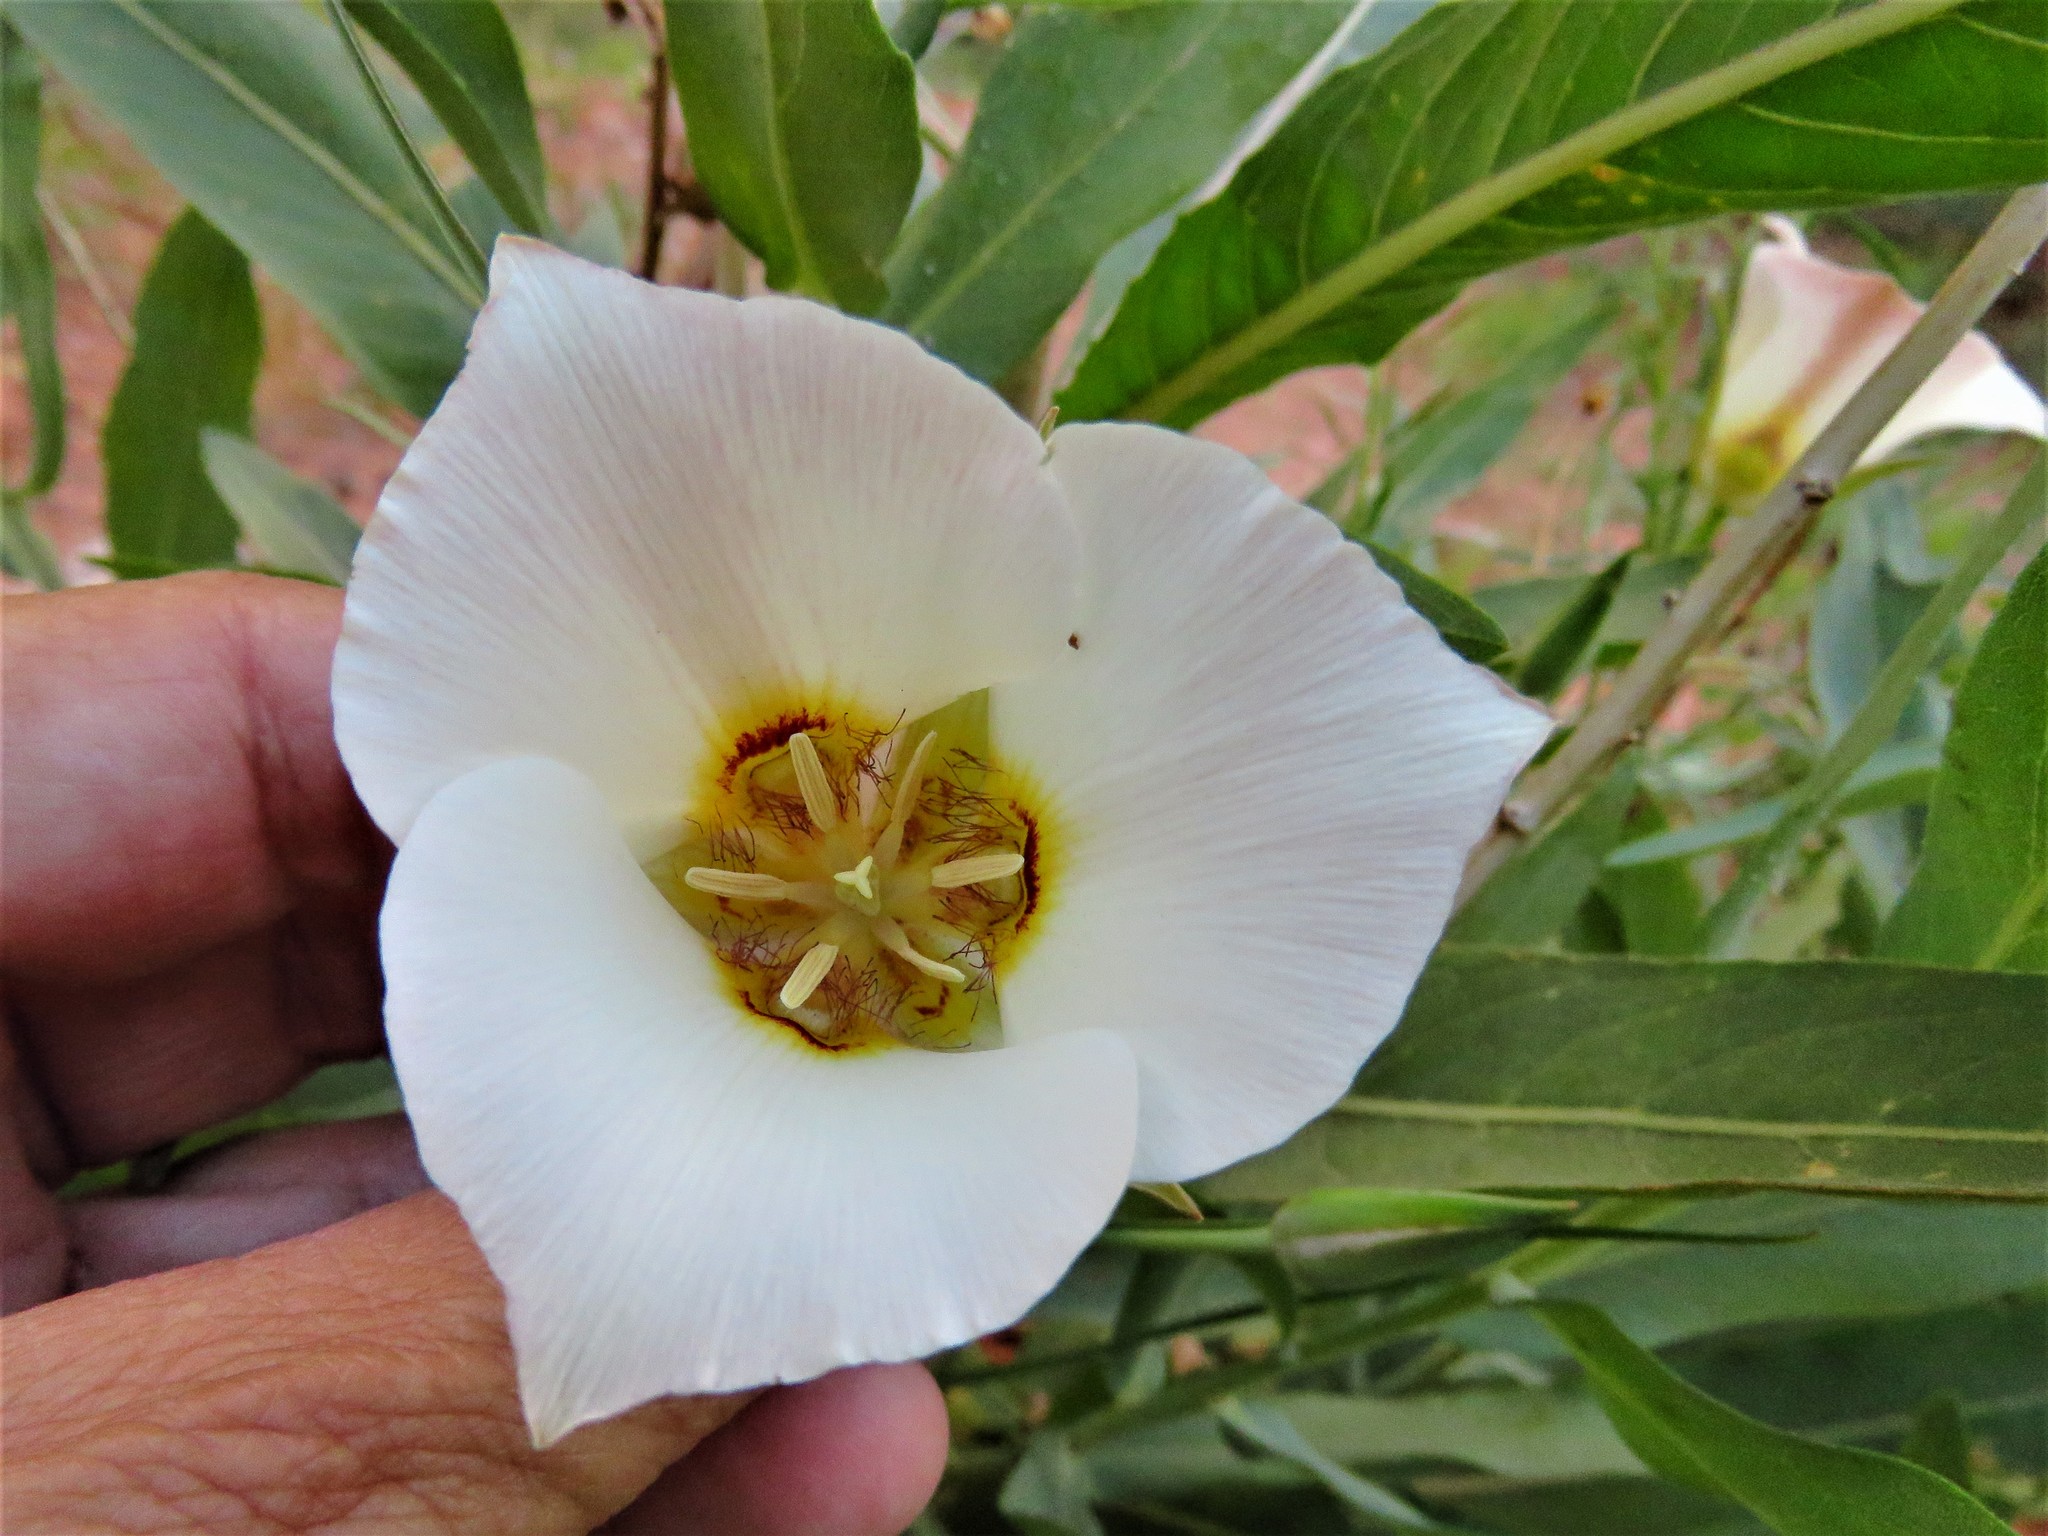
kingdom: Plantae
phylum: Tracheophyta
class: Liliopsida
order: Liliales
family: Liliaceae
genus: Calochortus
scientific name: Calochortus nuttallii
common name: Sego-lily
